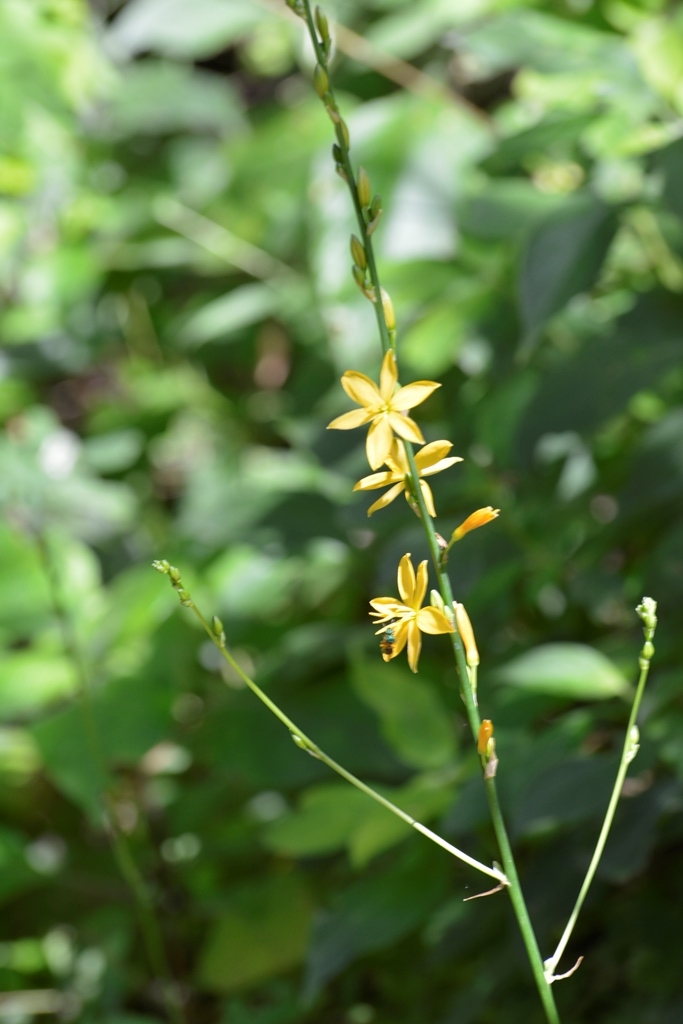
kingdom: Plantae
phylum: Tracheophyta
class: Liliopsida
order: Asparagales
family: Asparagaceae
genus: Echeandia
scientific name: Echeandia breedlovei
